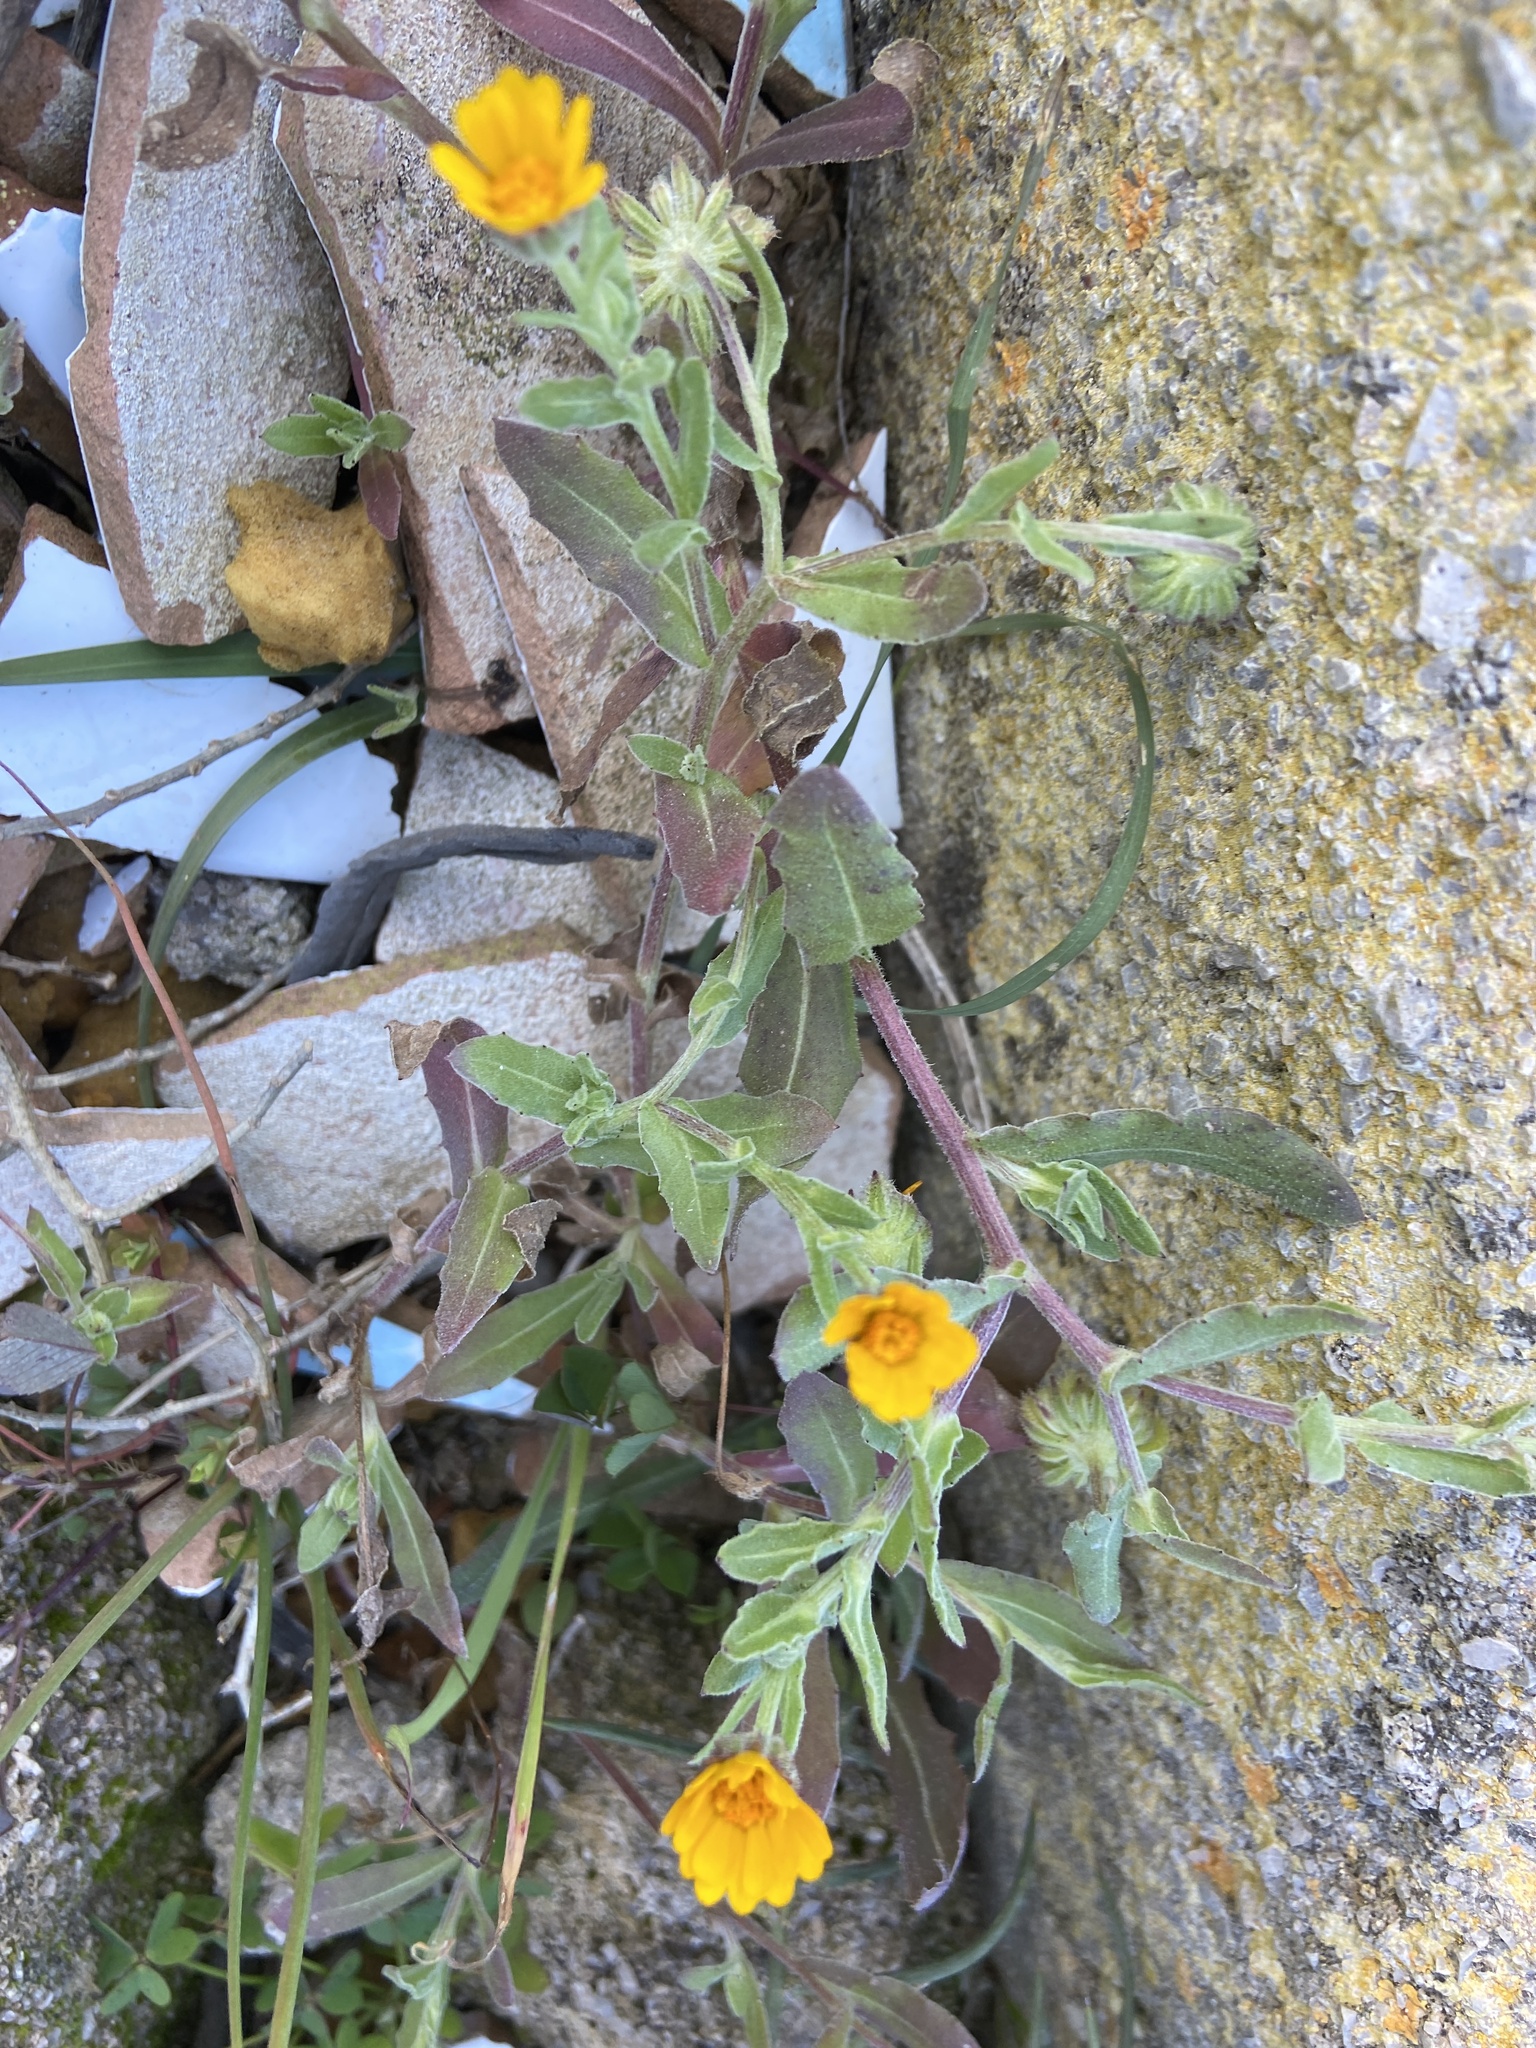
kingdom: Plantae
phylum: Tracheophyta
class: Magnoliopsida
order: Asterales
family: Asteraceae
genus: Calendula
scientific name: Calendula arvensis
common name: Field marigold
